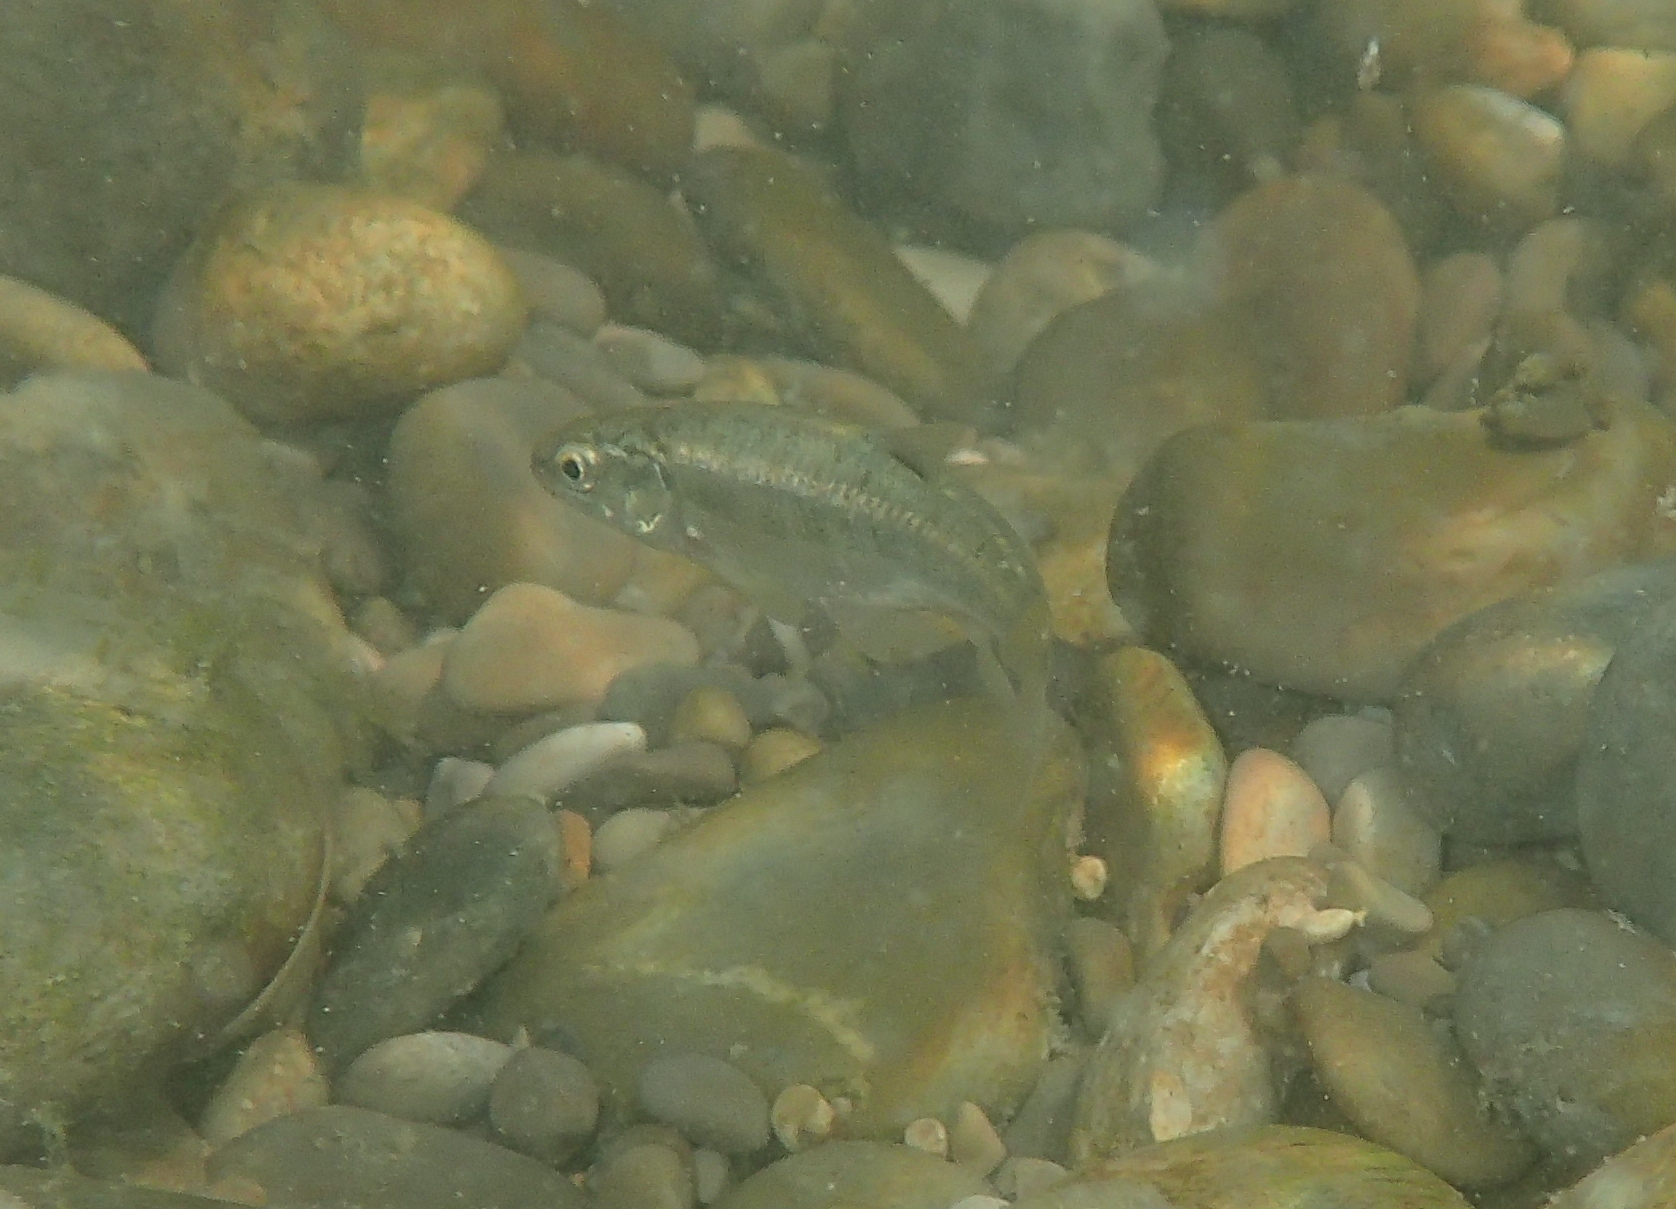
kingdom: Animalia
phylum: Chordata
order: Cypriniformes
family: Cyprinidae
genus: Phoxinus
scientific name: Phoxinus septimaniae
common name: Languedoc minnow
